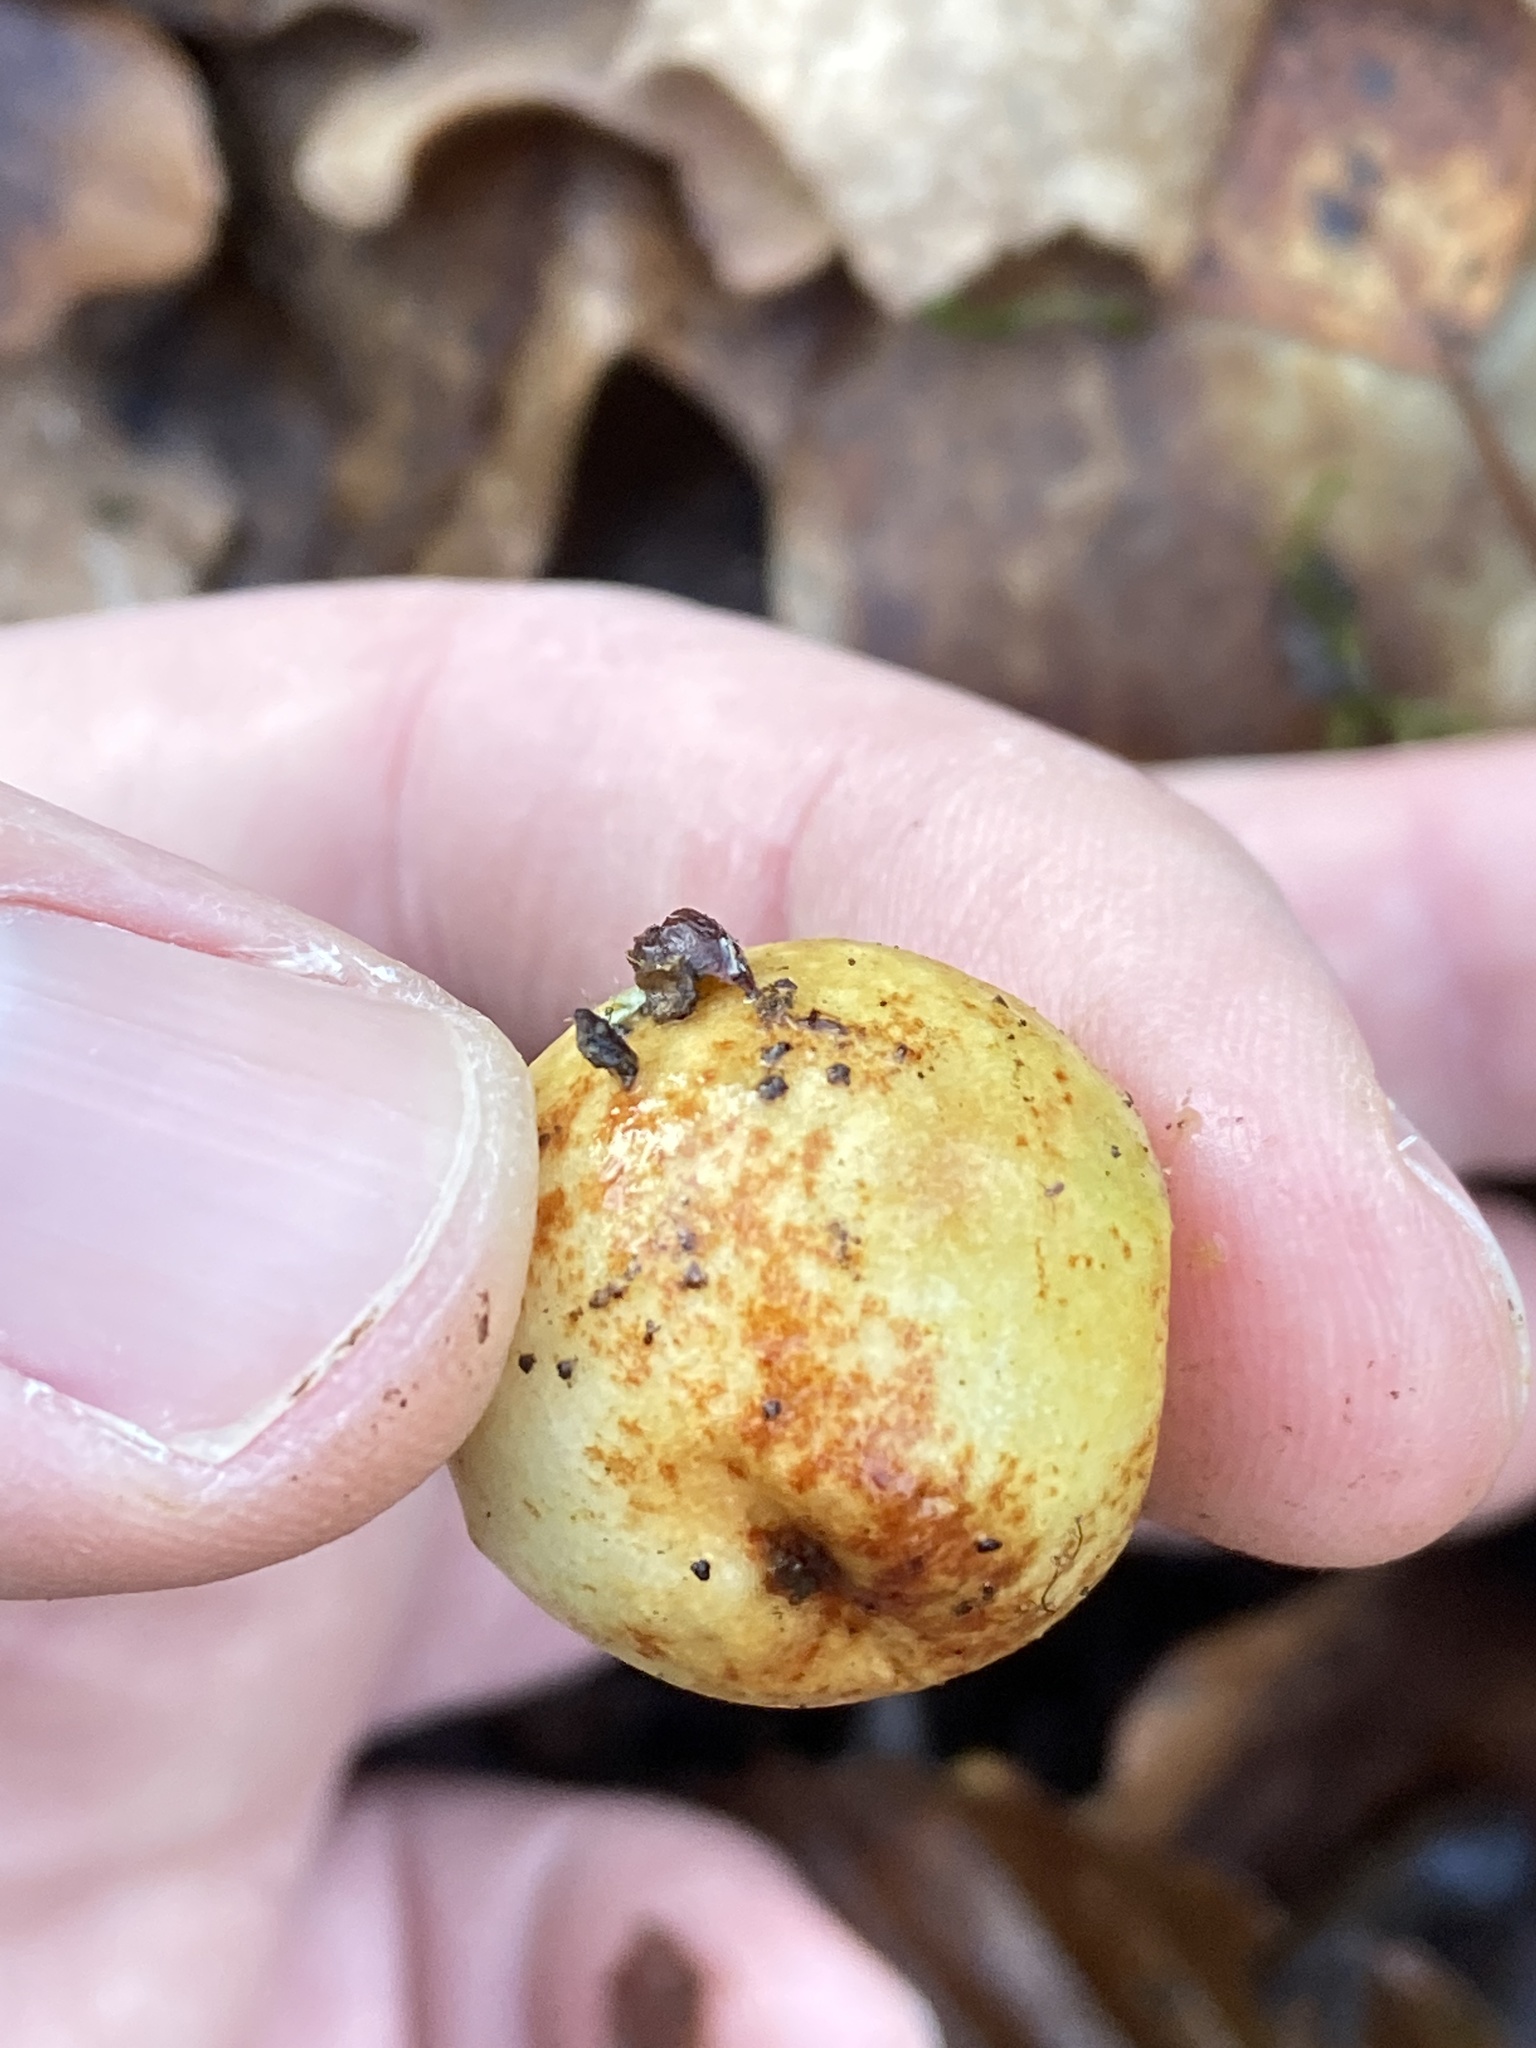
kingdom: Animalia
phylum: Arthropoda
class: Insecta
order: Hymenoptera
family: Cynipidae
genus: Cynips
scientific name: Cynips quercusfolii
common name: Cherry gall
